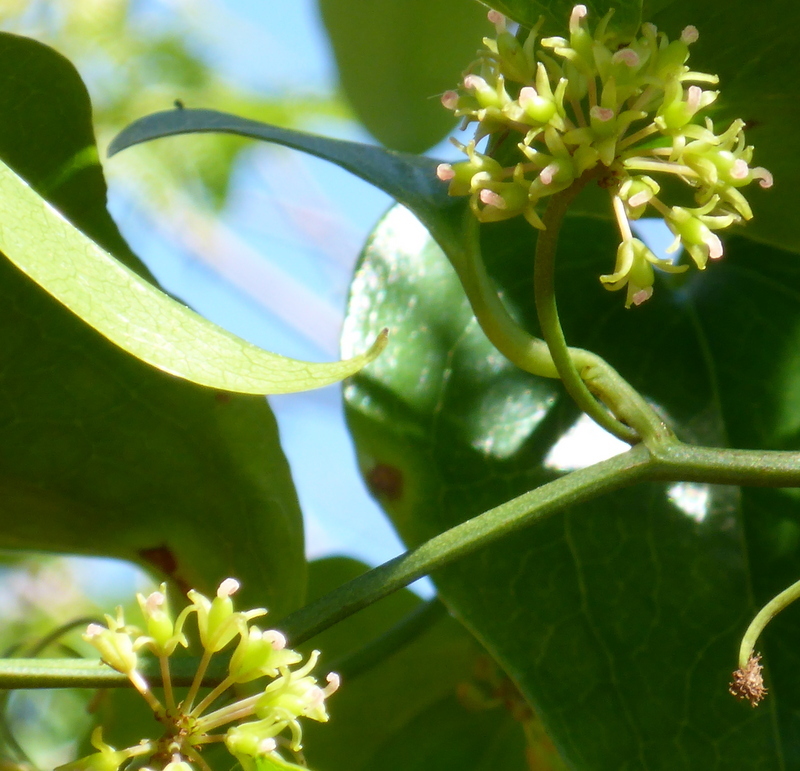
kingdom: Plantae
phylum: Tracheophyta
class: Liliopsida
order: Liliales
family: Smilacaceae
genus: Smilax
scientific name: Smilax bona-nox
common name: Catbrier
